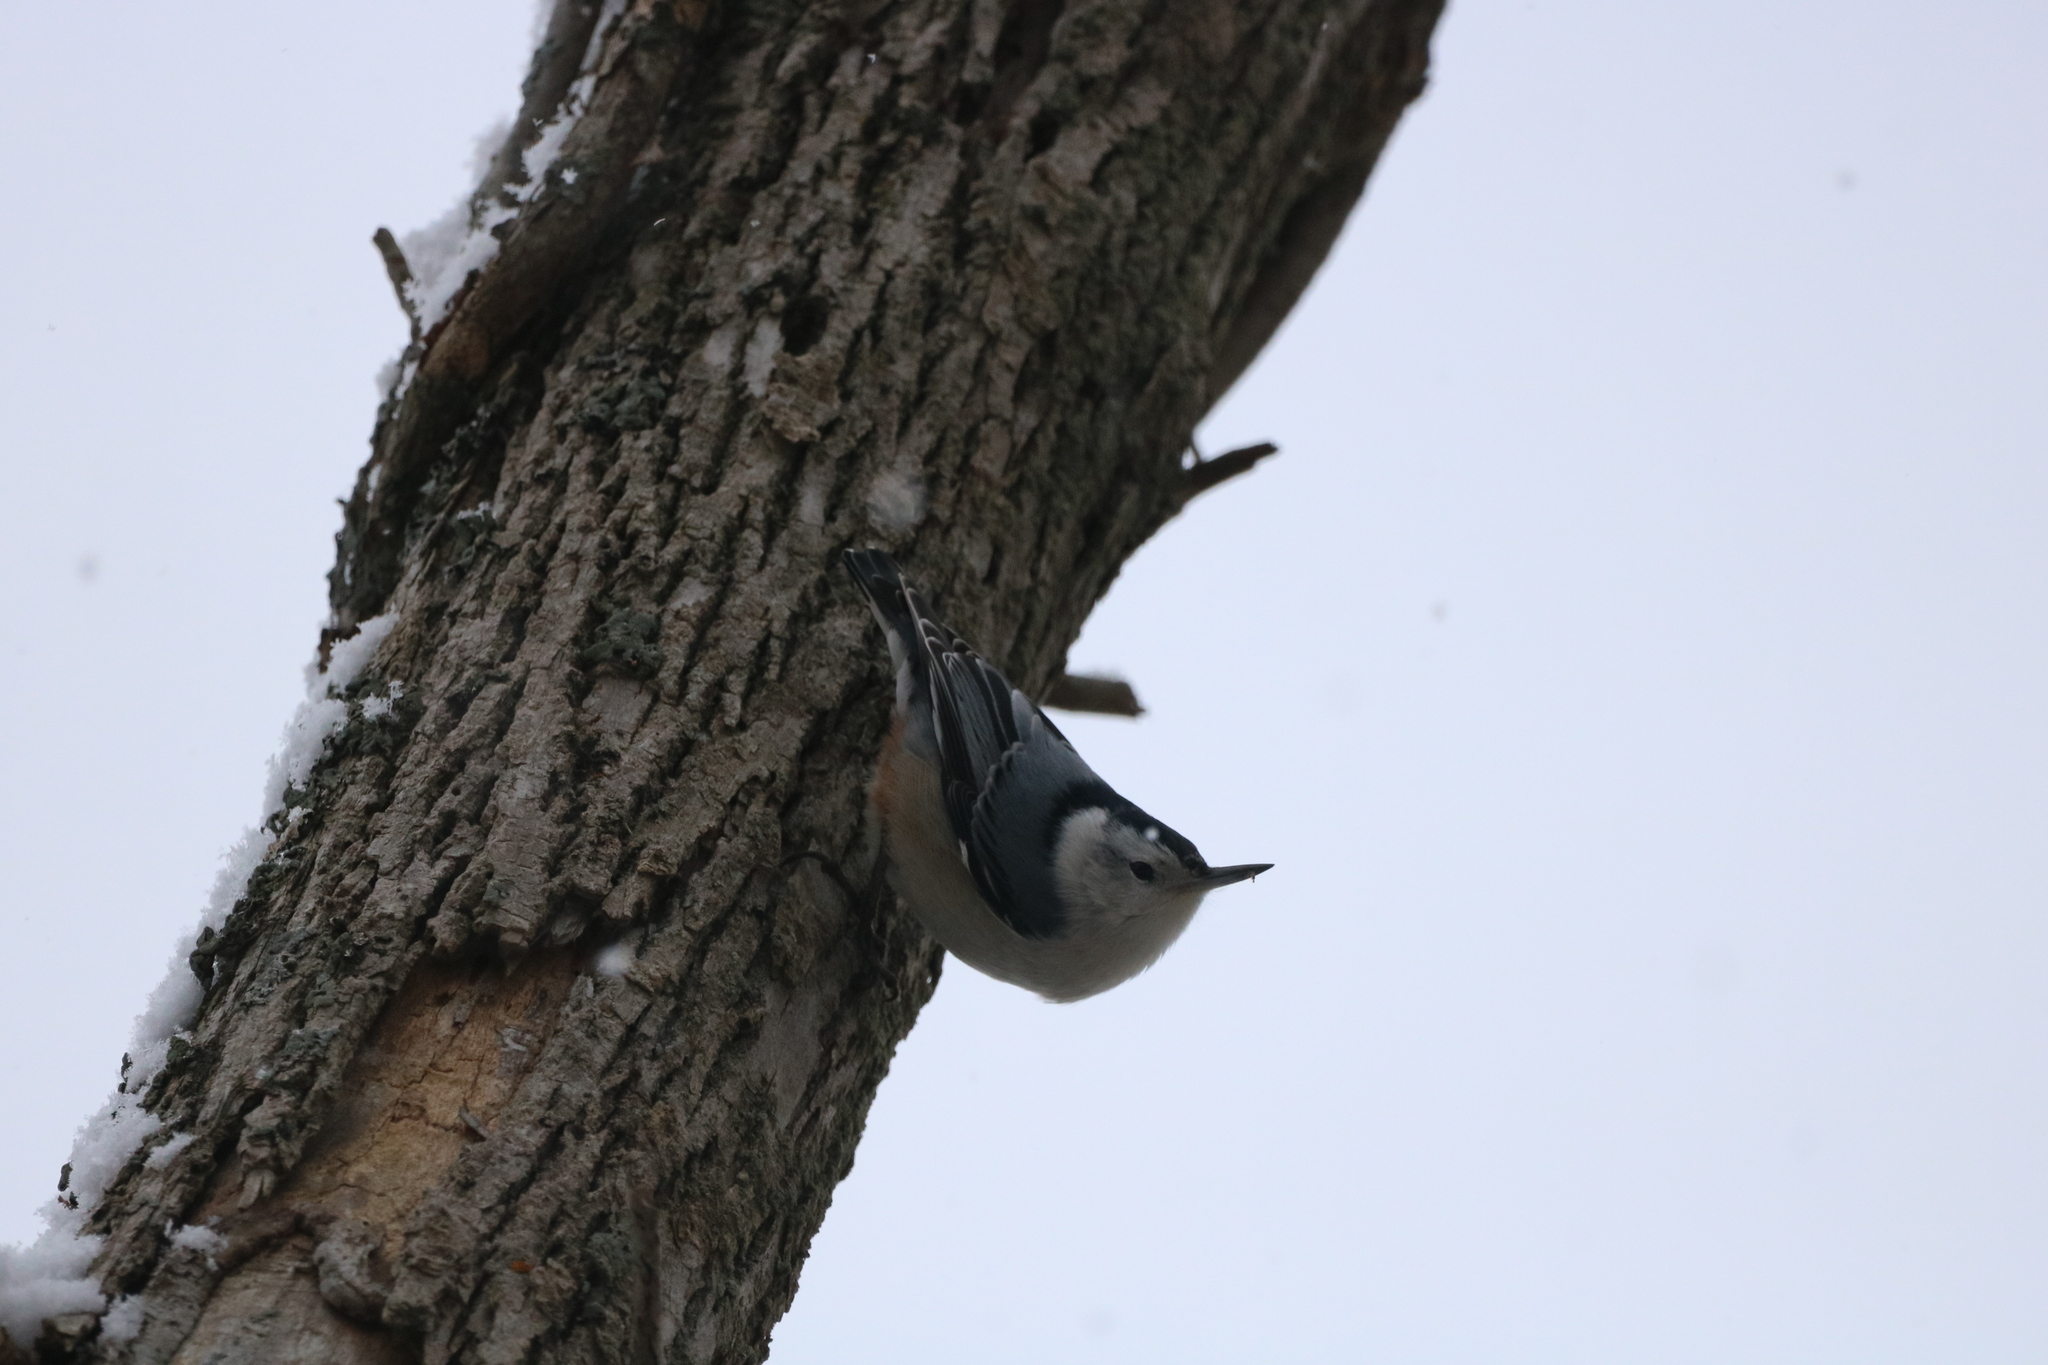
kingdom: Animalia
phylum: Chordata
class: Aves
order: Passeriformes
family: Sittidae
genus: Sitta
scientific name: Sitta carolinensis
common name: White-breasted nuthatch
